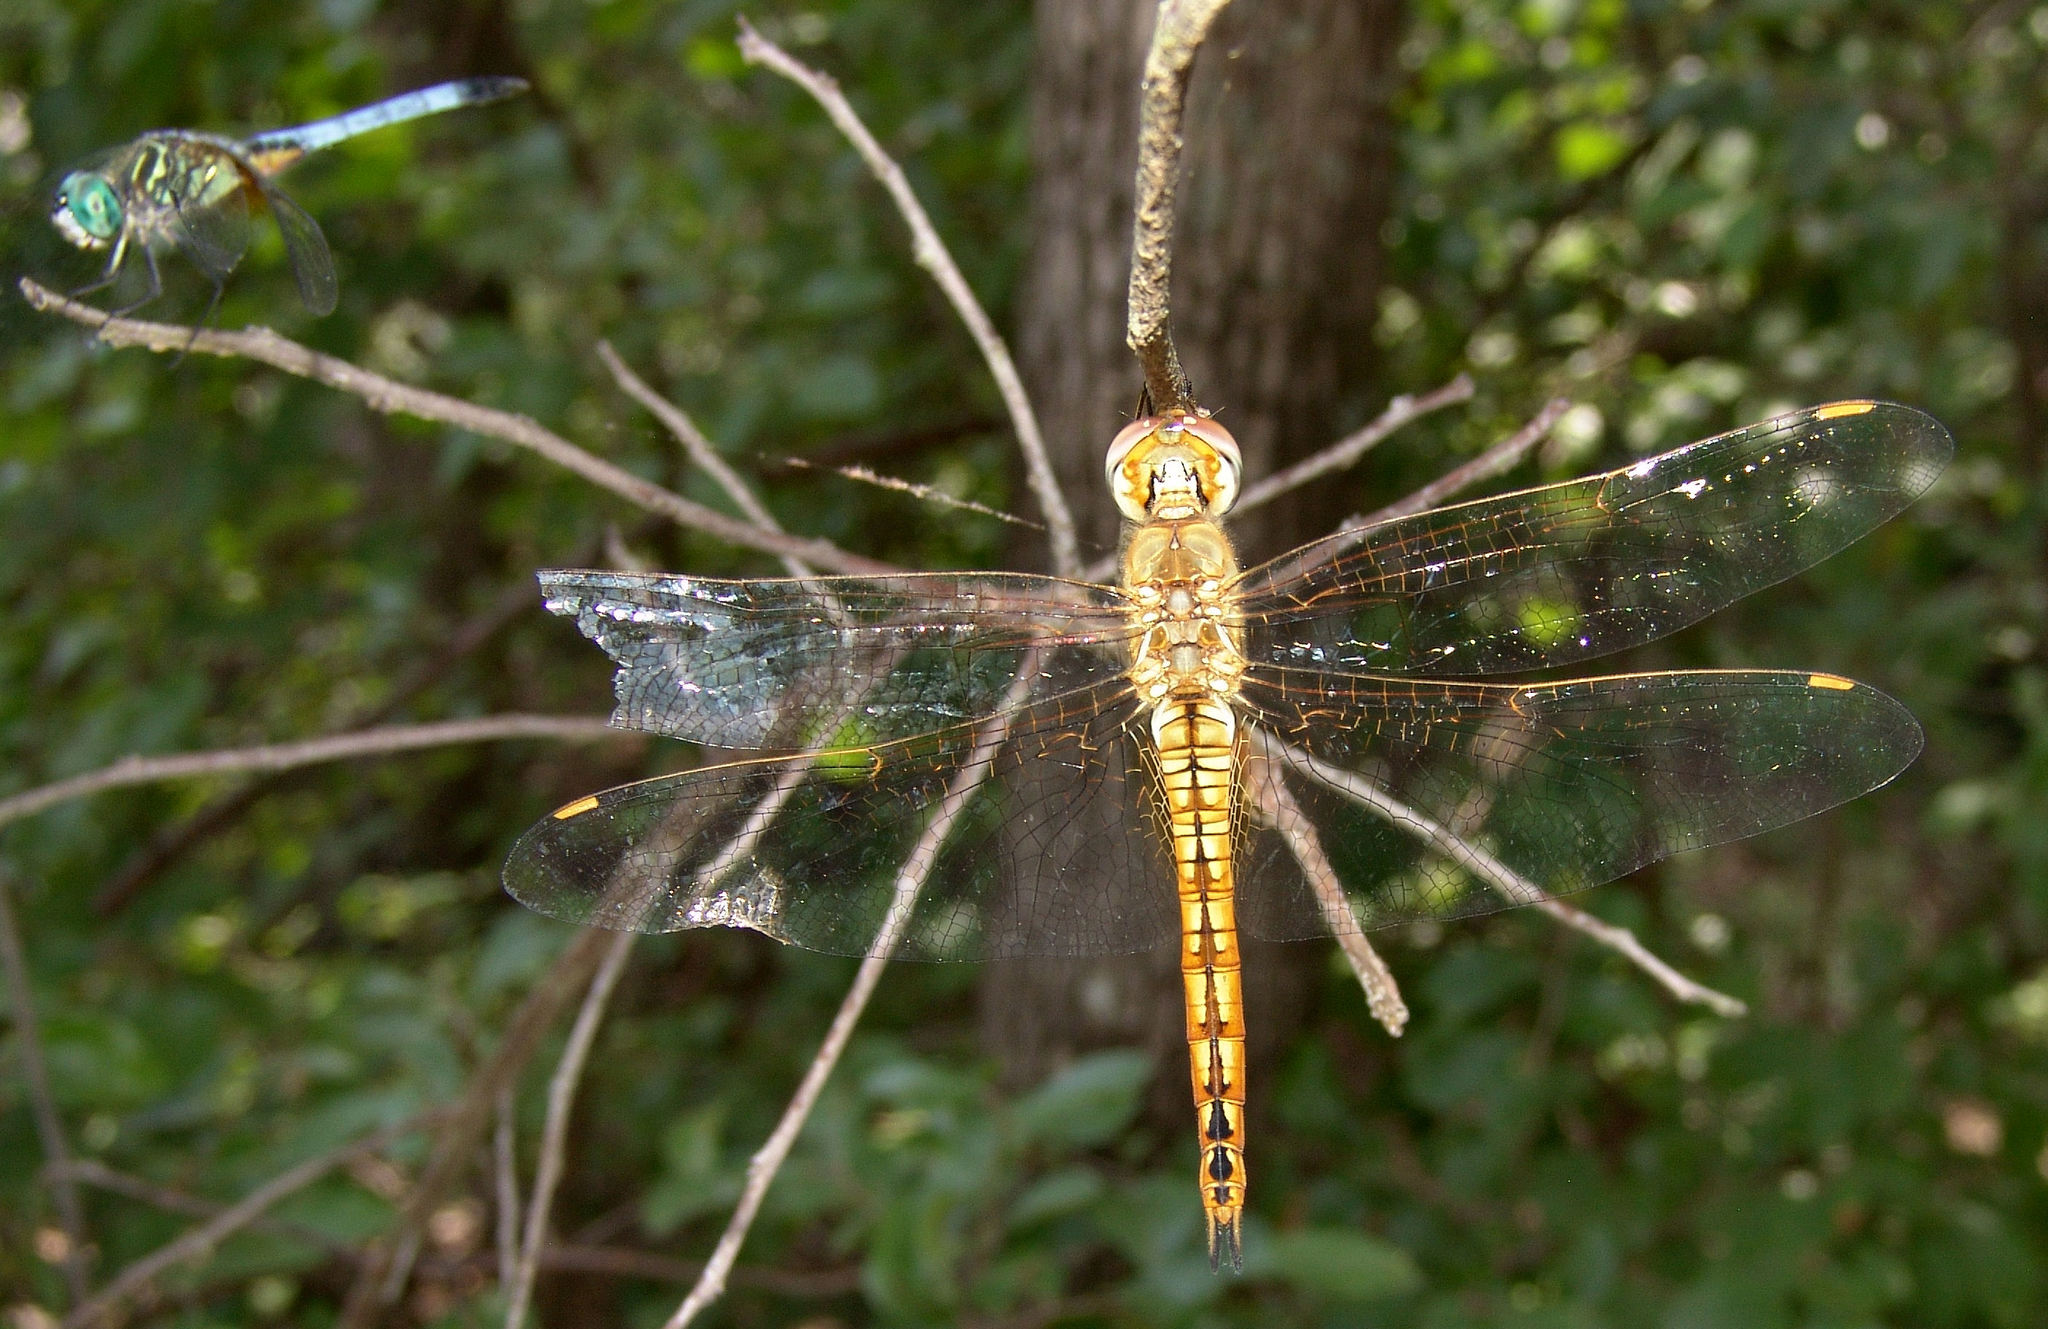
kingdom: Animalia
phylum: Arthropoda
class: Insecta
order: Odonata
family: Libellulidae
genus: Pantala
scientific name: Pantala flavescens
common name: Wandering glider
